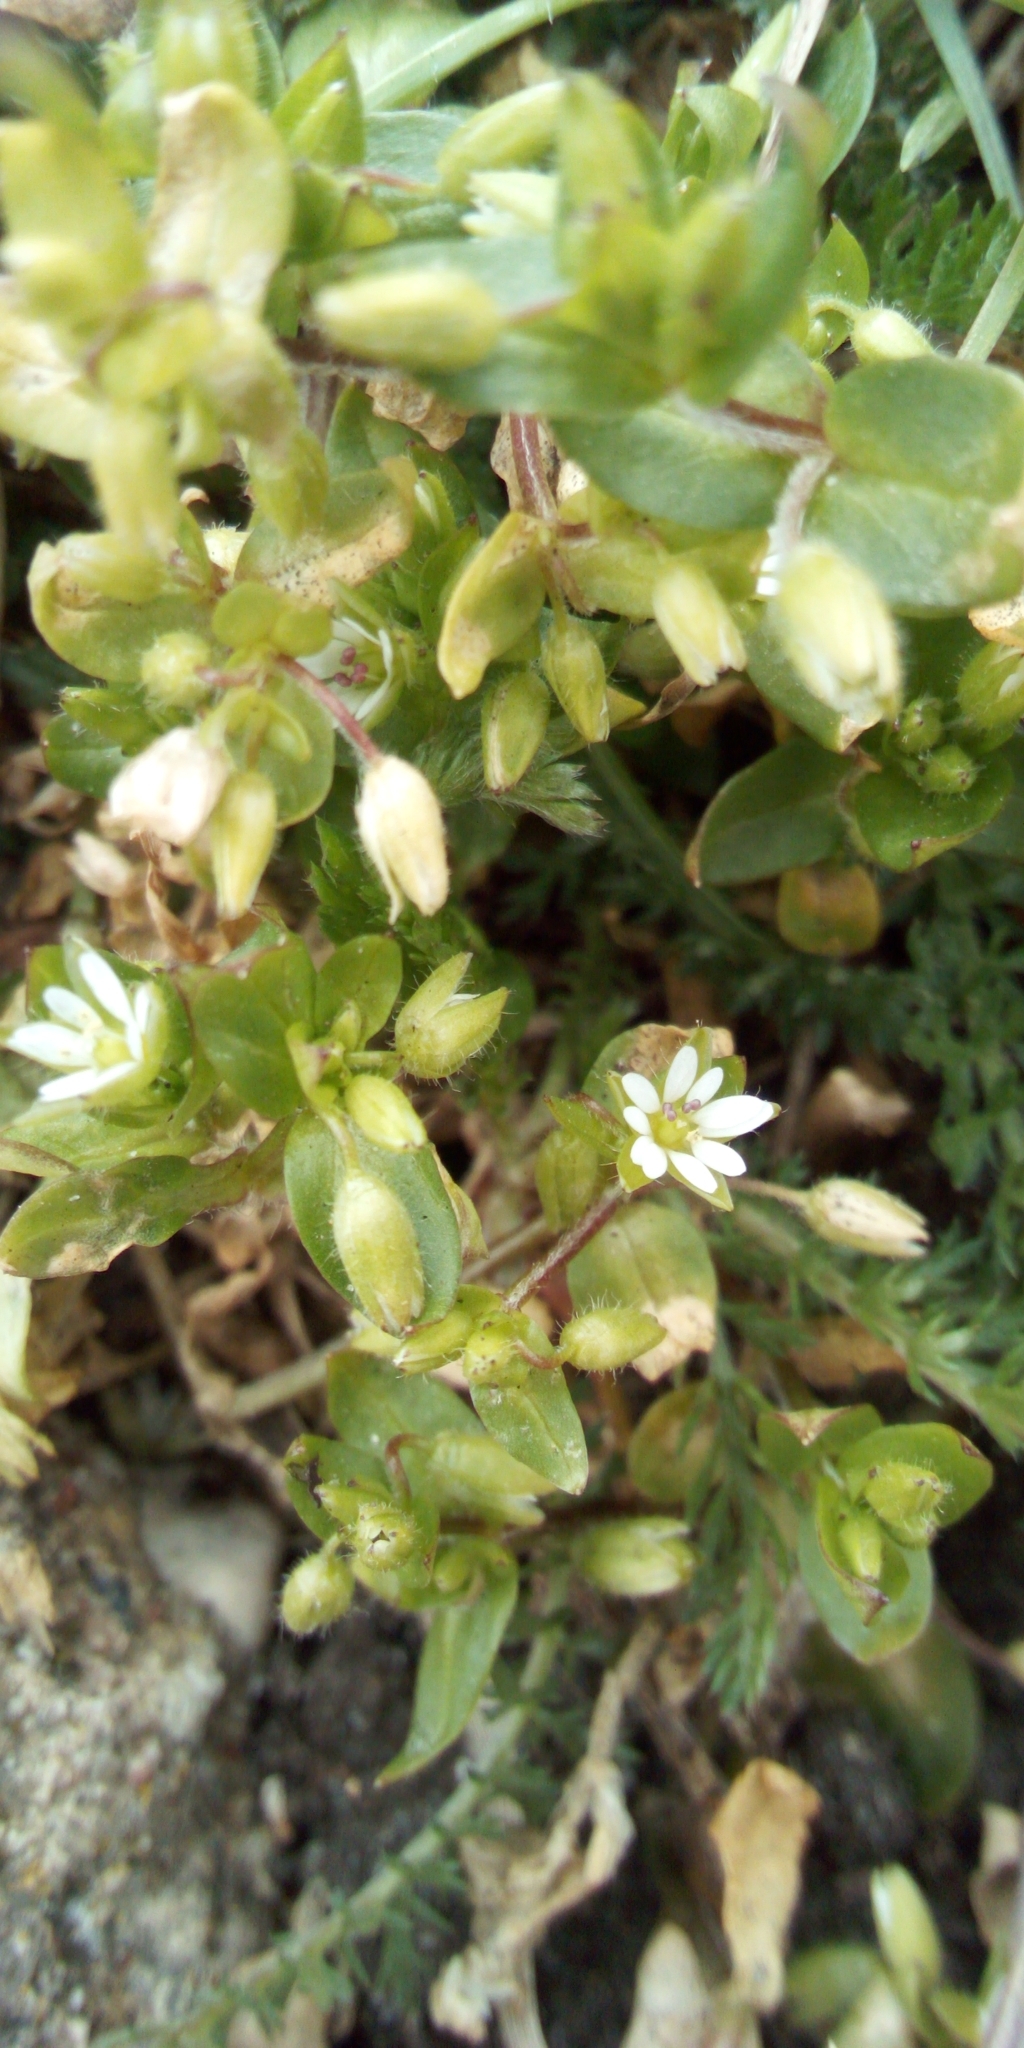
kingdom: Plantae
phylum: Tracheophyta
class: Magnoliopsida
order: Caryophyllales
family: Caryophyllaceae
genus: Stellaria
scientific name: Stellaria media
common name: Common chickweed
